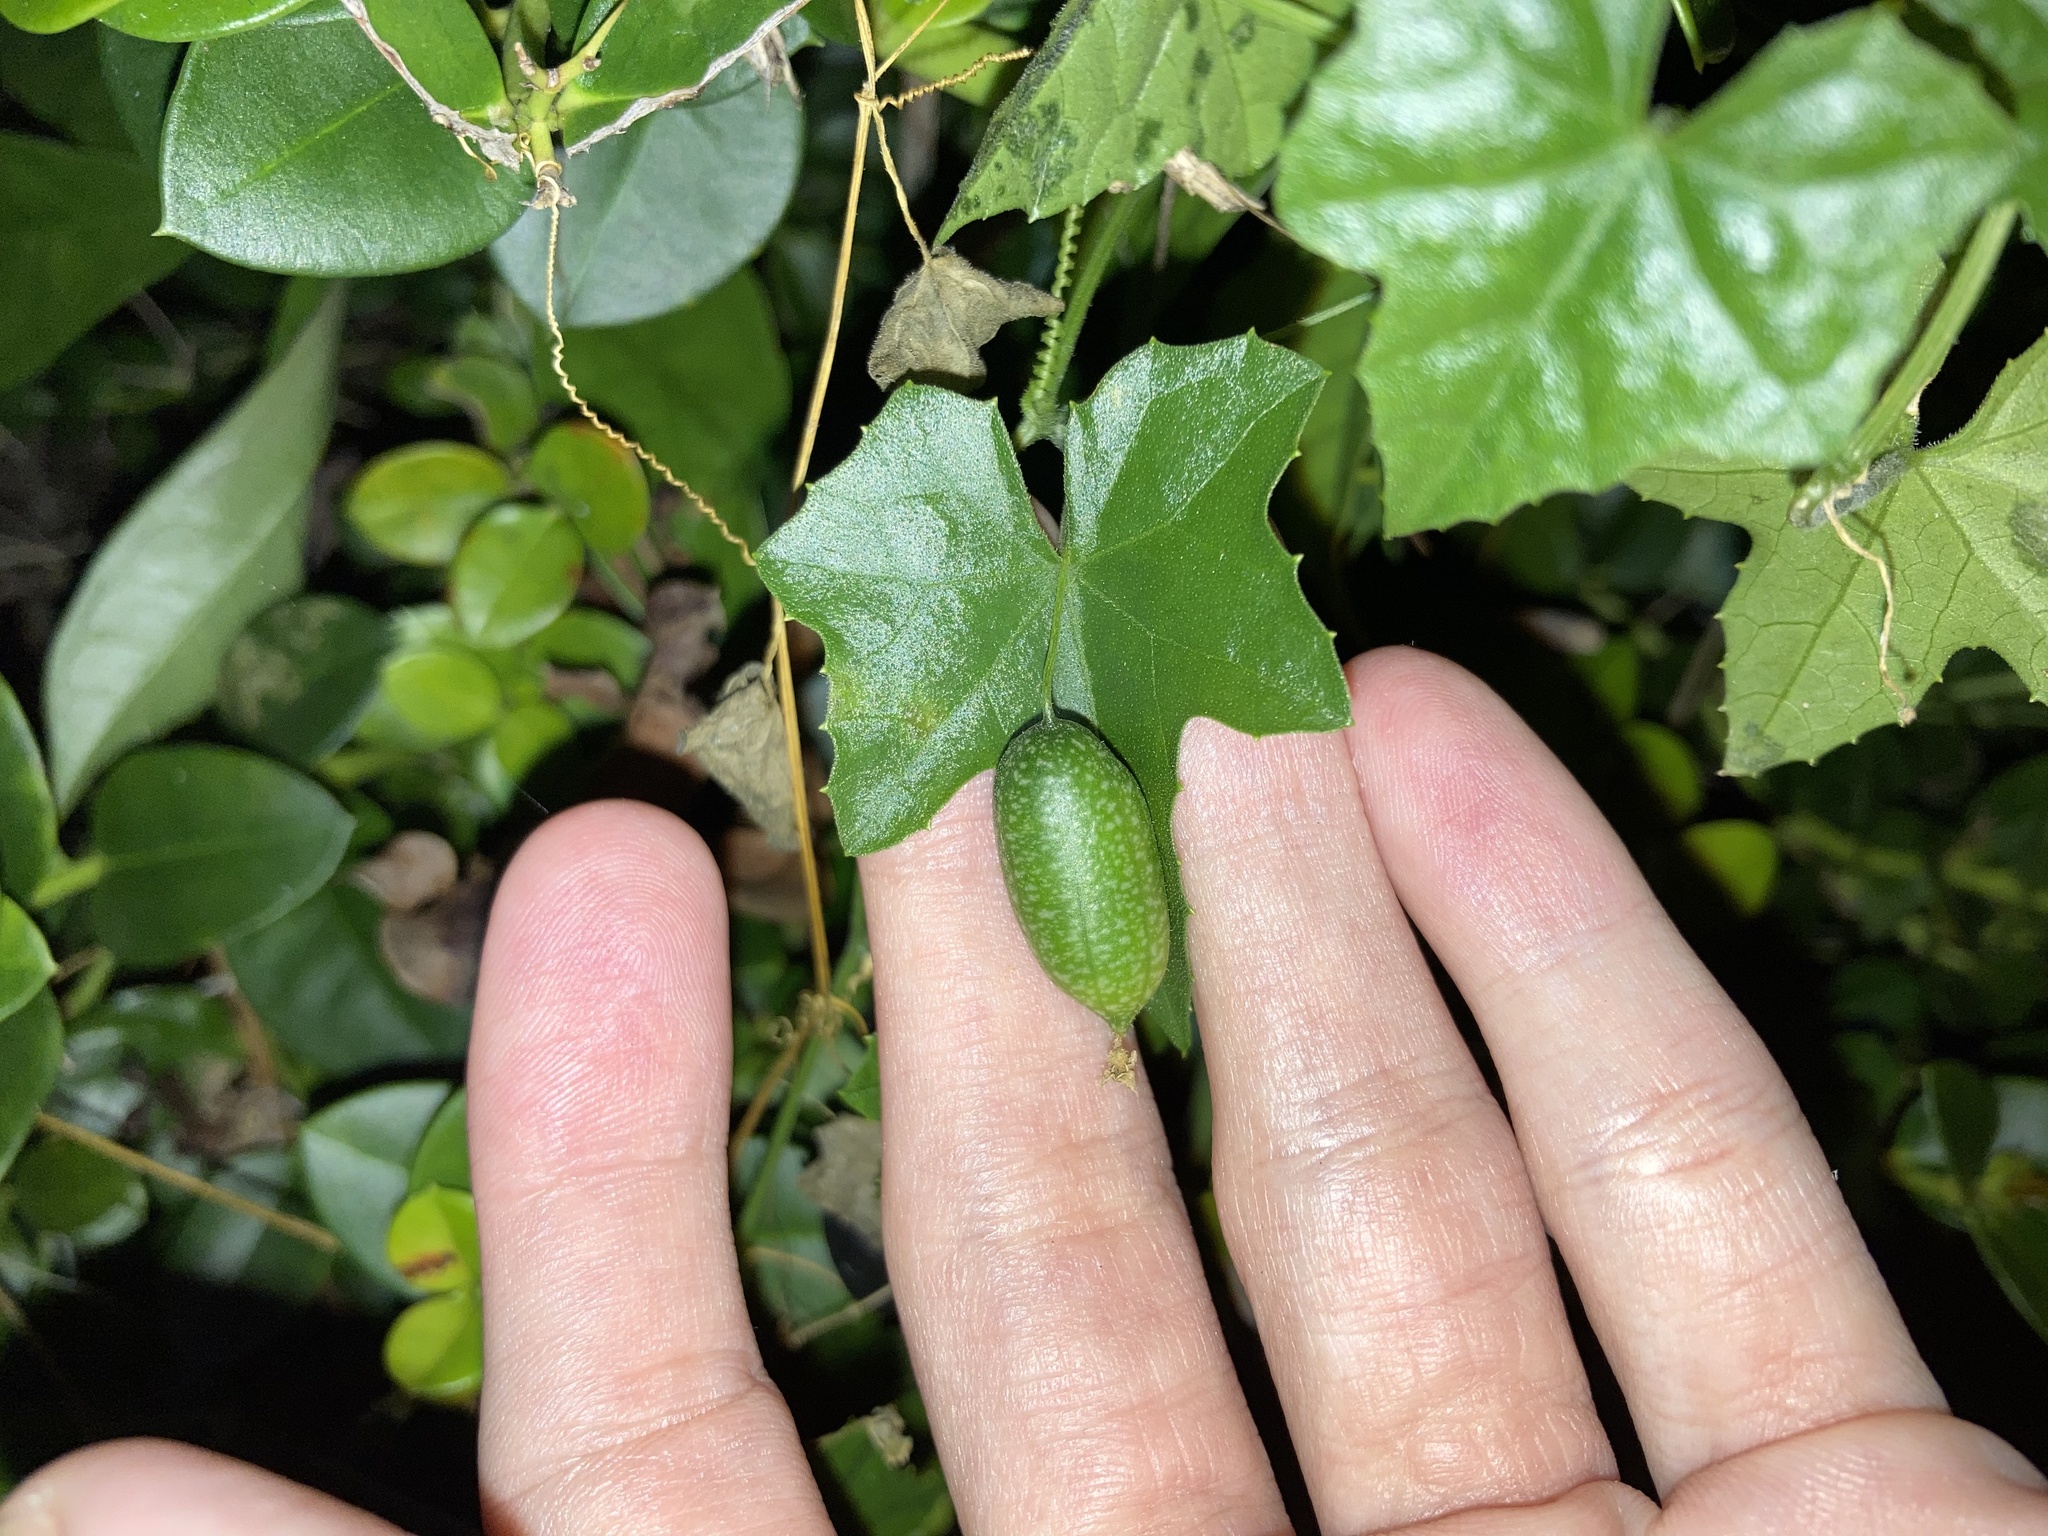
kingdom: Plantae
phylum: Tracheophyta
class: Magnoliopsida
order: Cucurbitales
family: Cucurbitaceae
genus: Melothria
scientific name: Melothria pendula
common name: Creeping-cucumber
